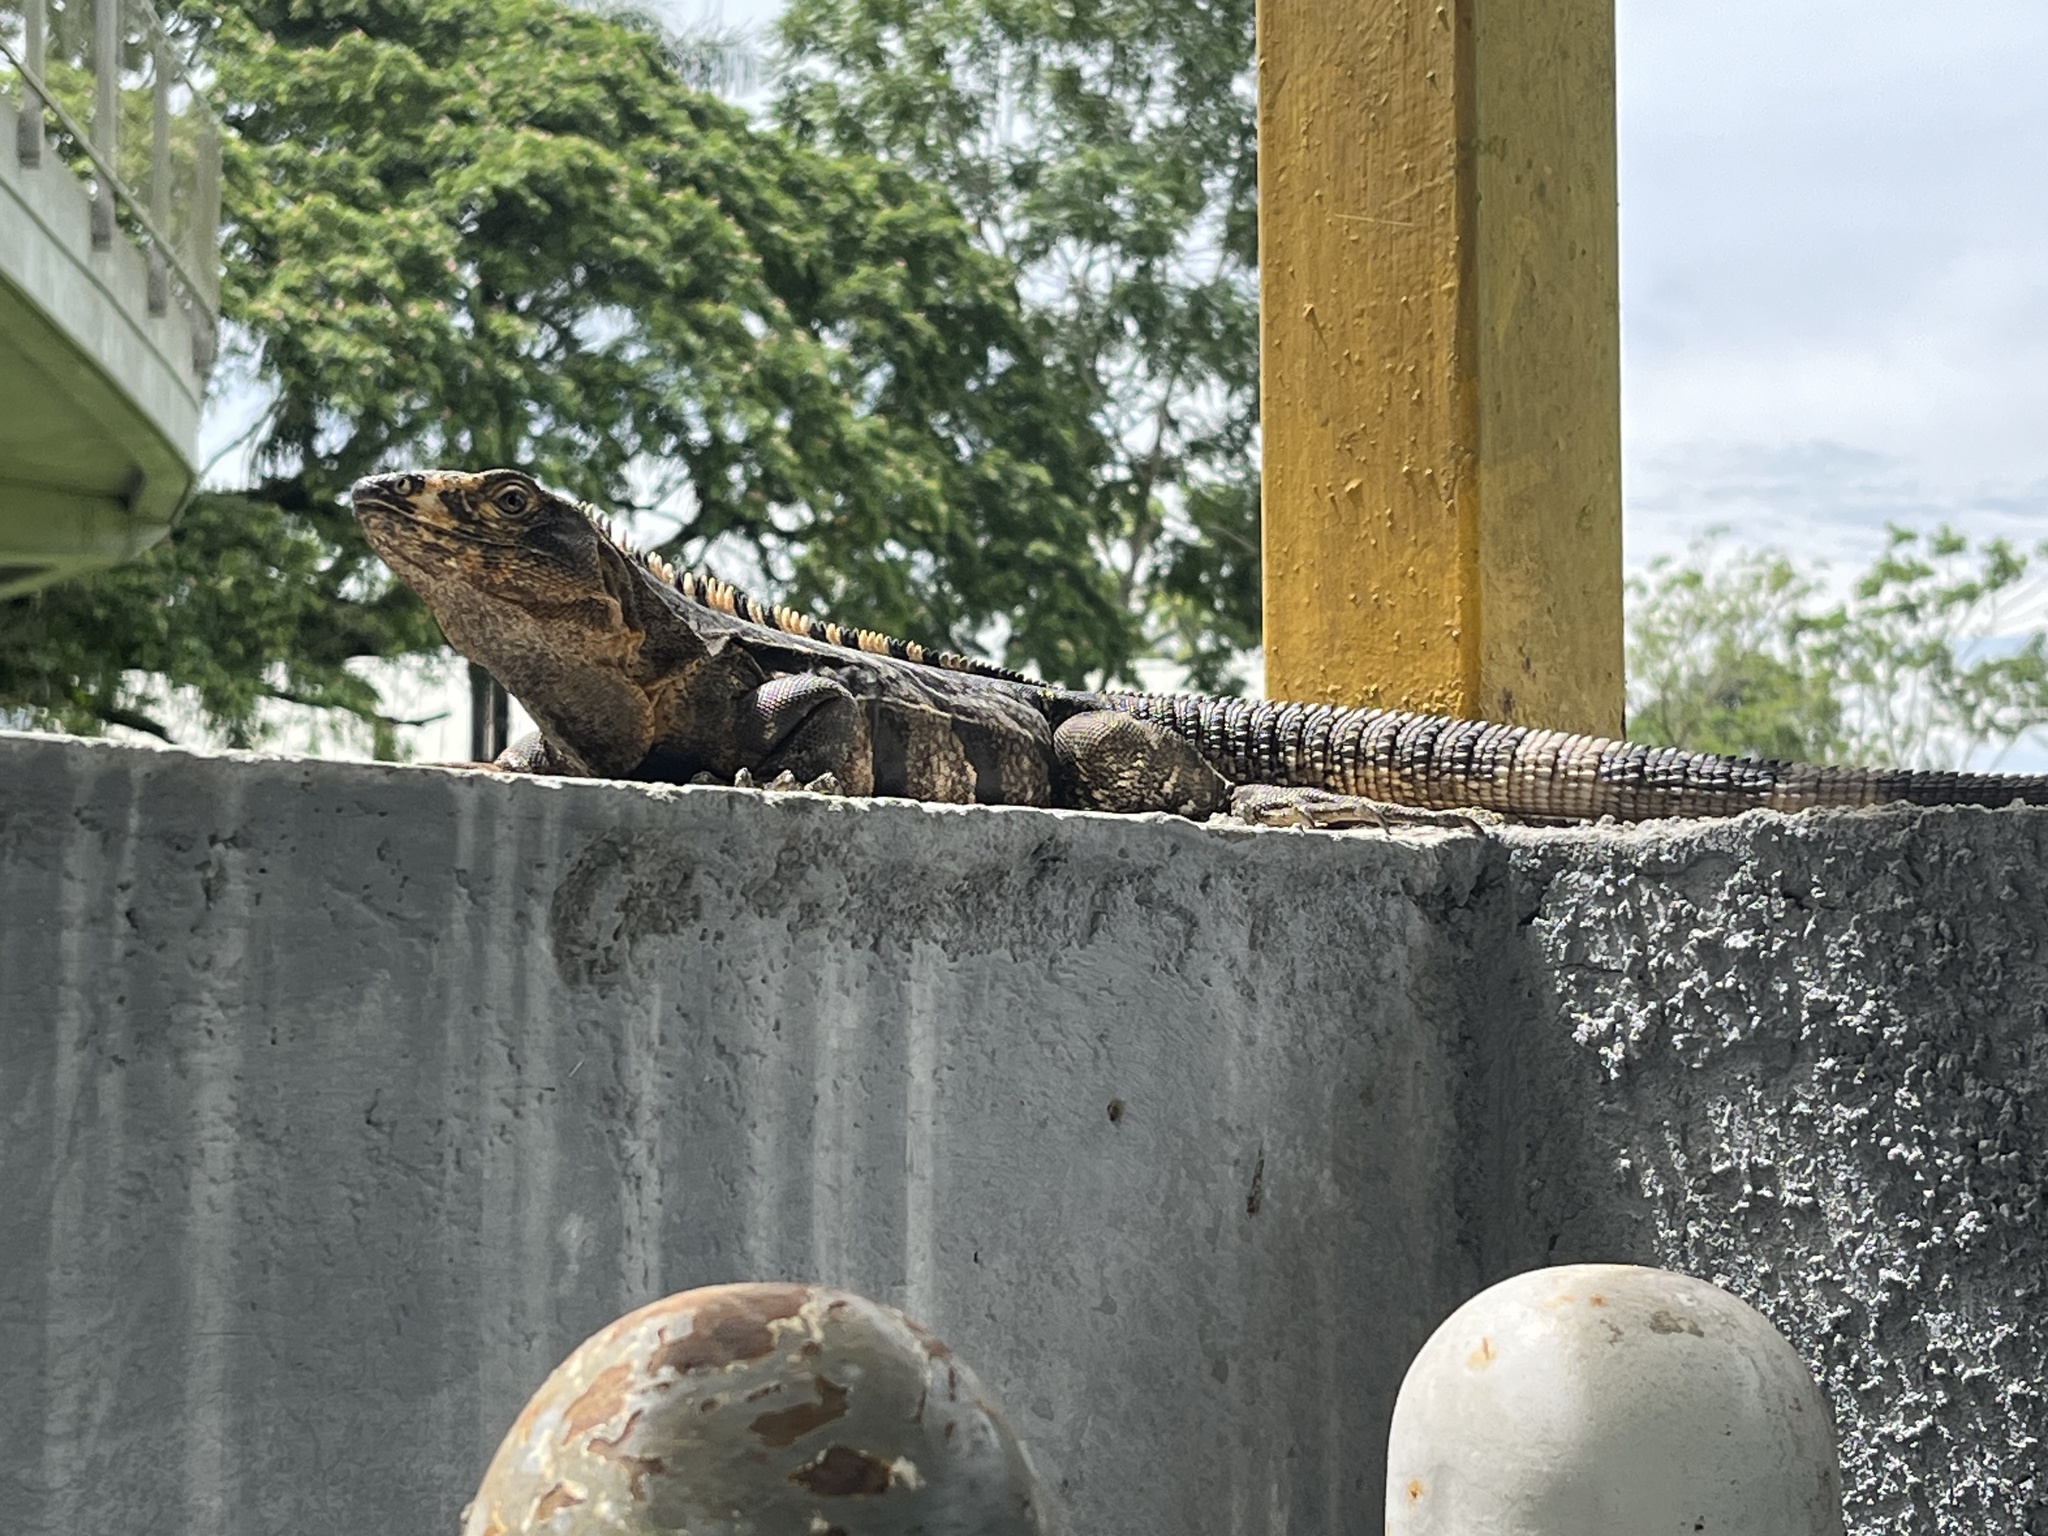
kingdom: Animalia
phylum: Chordata
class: Squamata
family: Iguanidae
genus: Ctenosaura
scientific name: Ctenosaura similis
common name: Black spiny-tailed iguana
